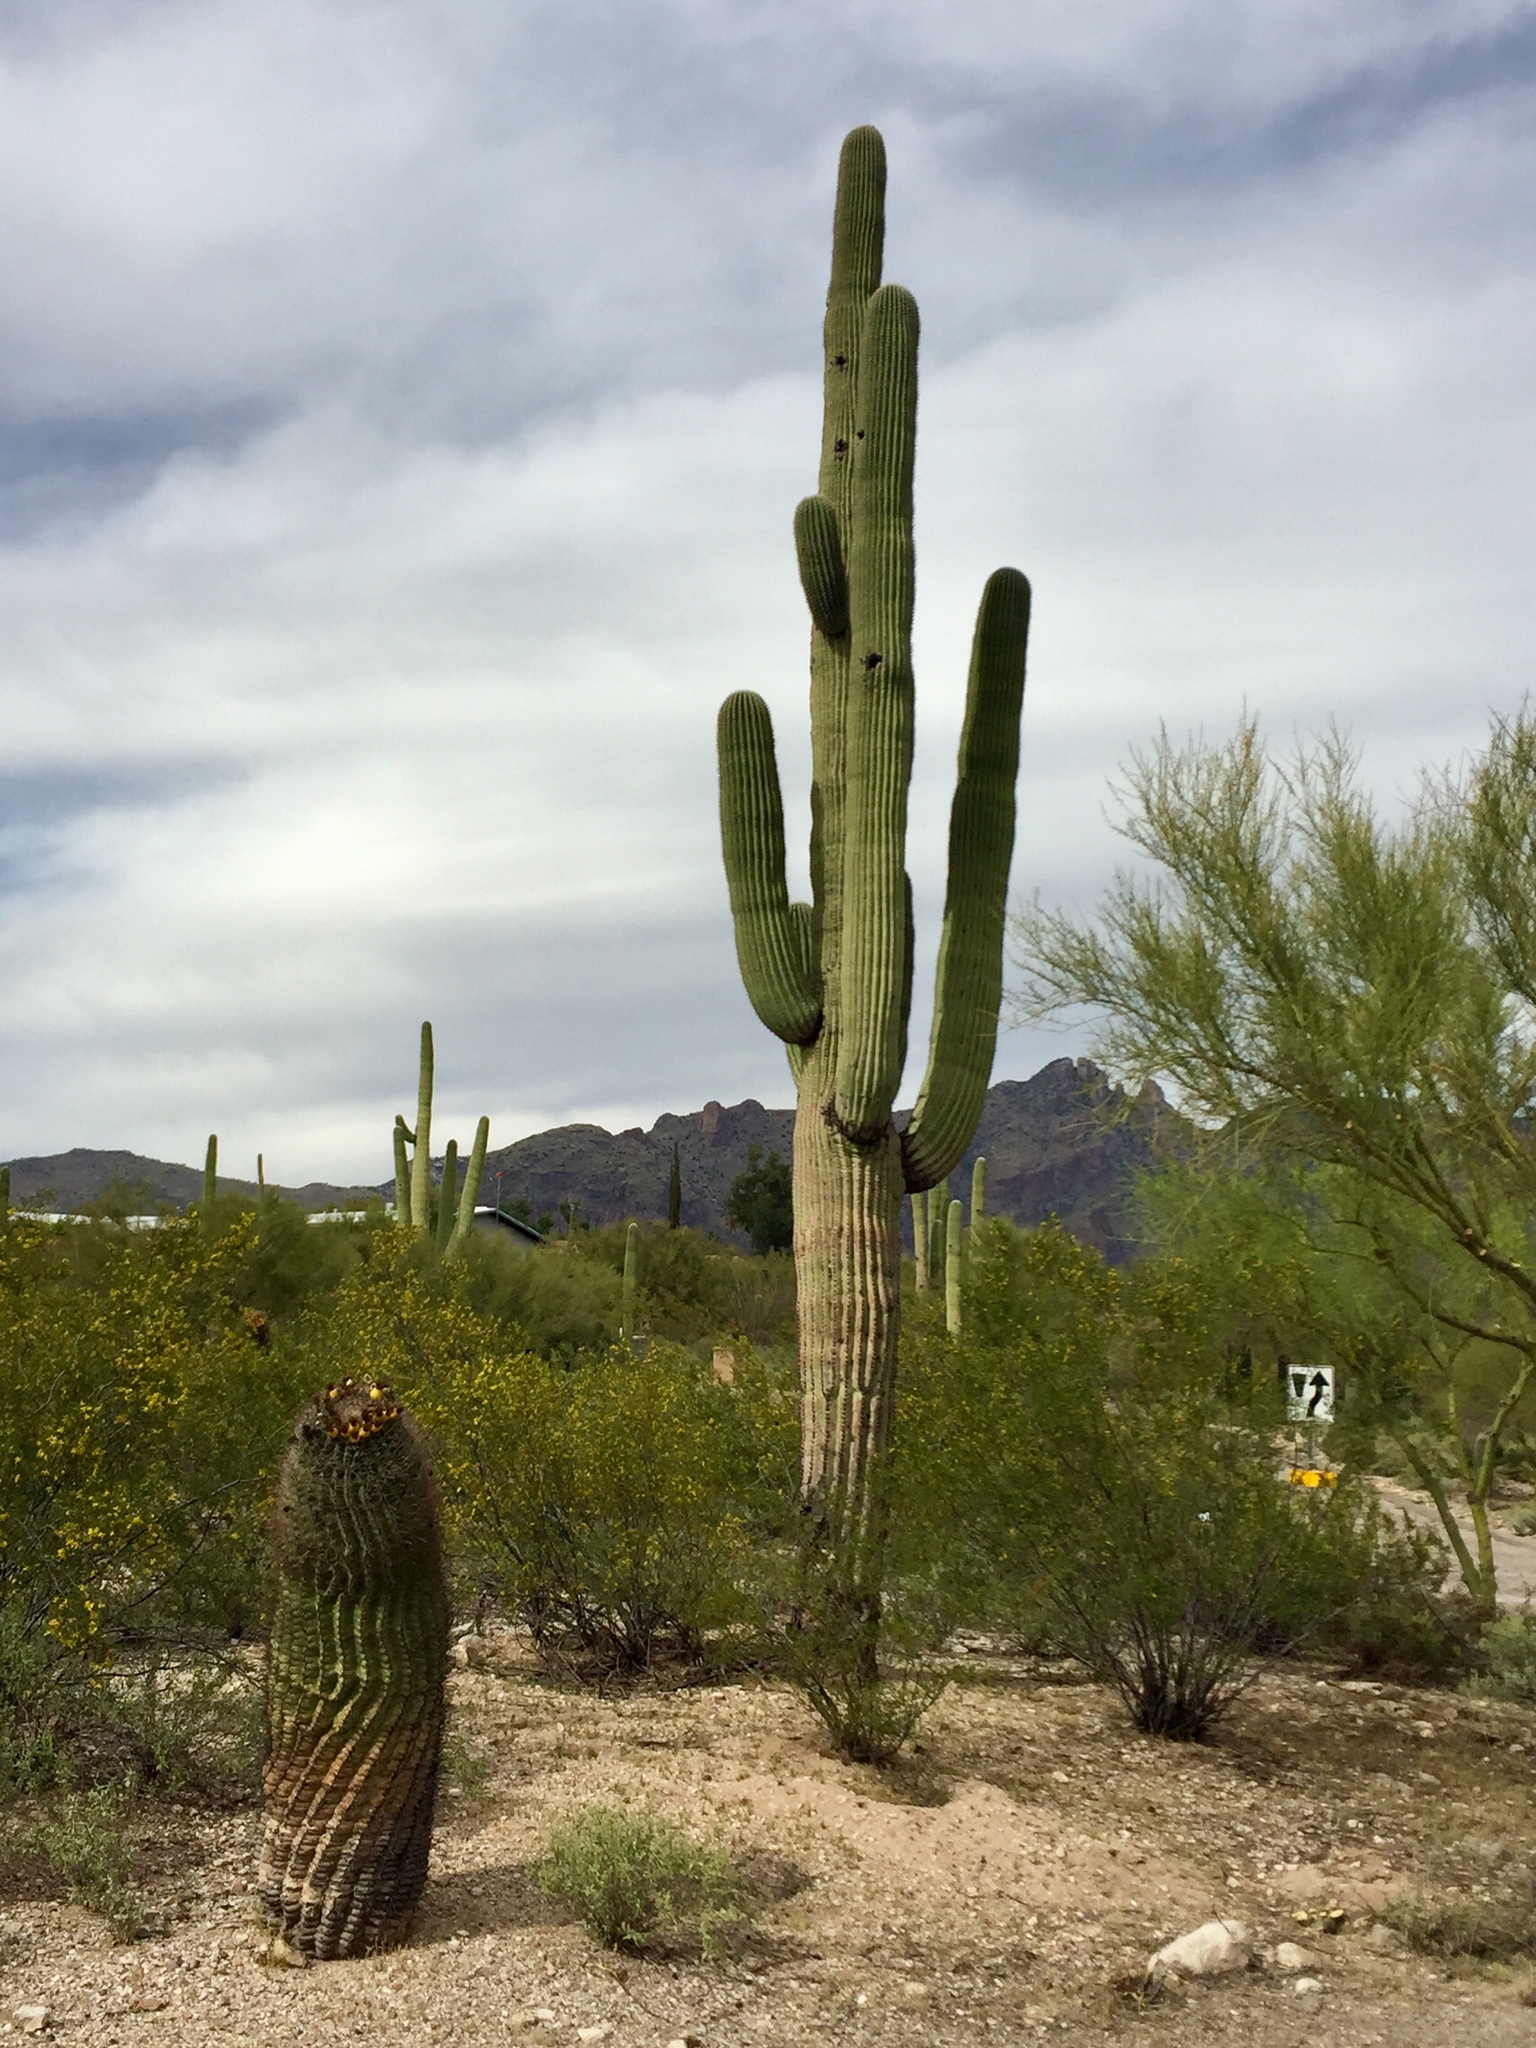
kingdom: Plantae
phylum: Tracheophyta
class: Magnoliopsida
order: Caryophyllales
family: Cactaceae
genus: Carnegiea
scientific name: Carnegiea gigantea
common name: Saguaro
